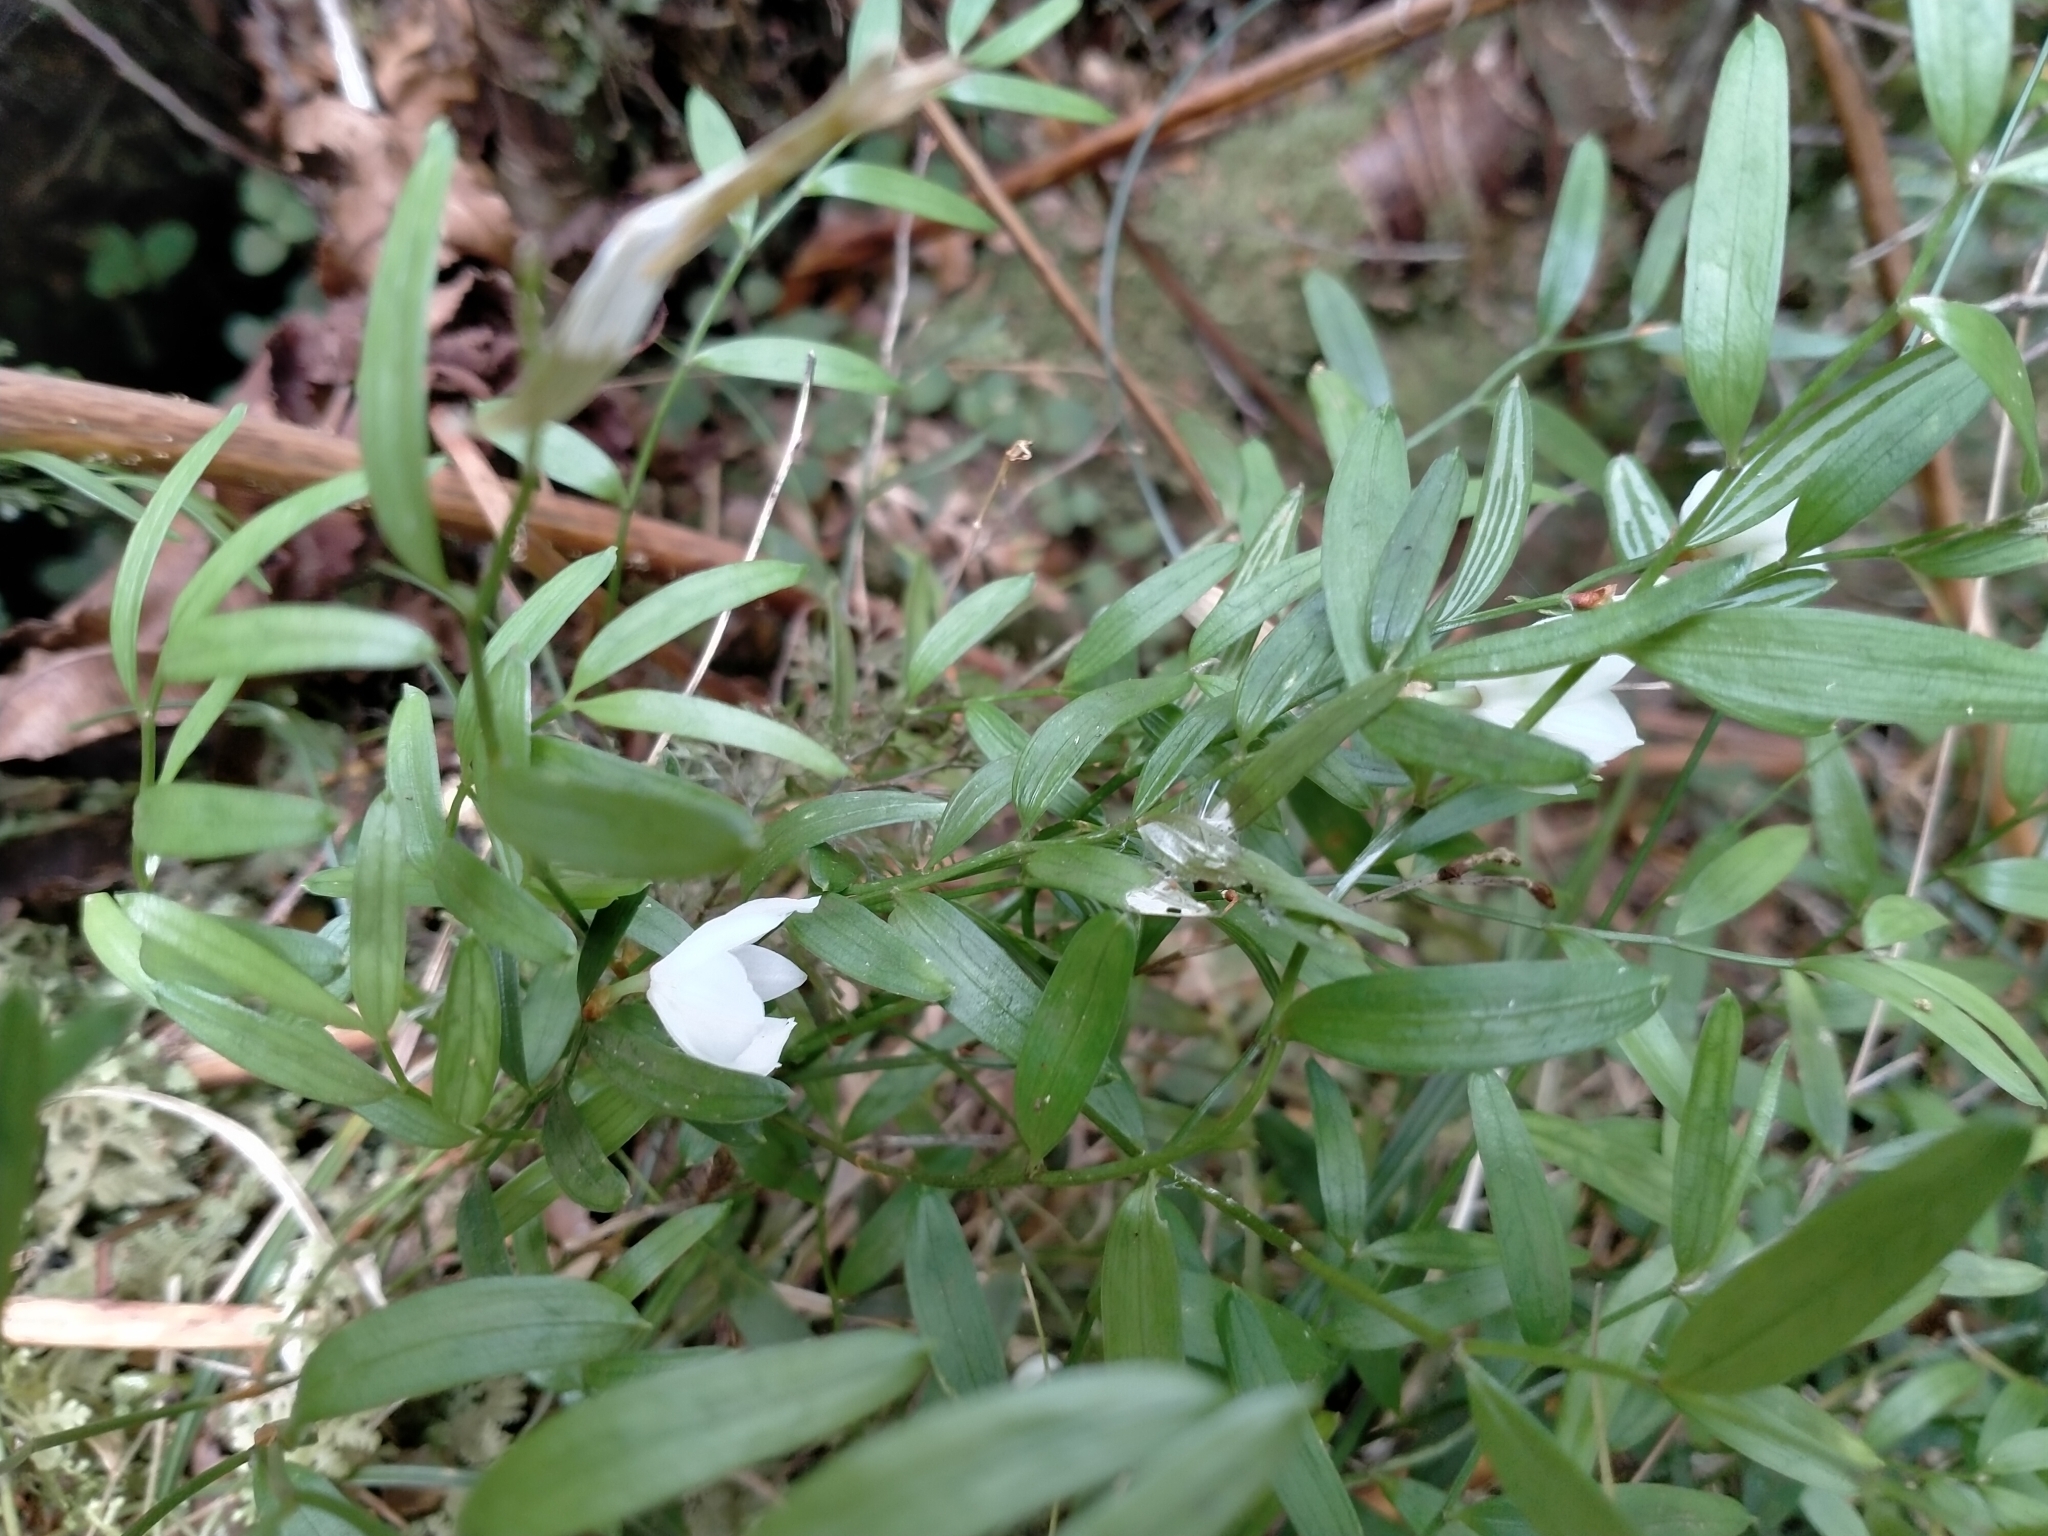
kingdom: Plantae
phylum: Tracheophyta
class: Liliopsida
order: Liliales
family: Alstroemeriaceae
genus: Luzuriaga
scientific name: Luzuriaga parviflora
